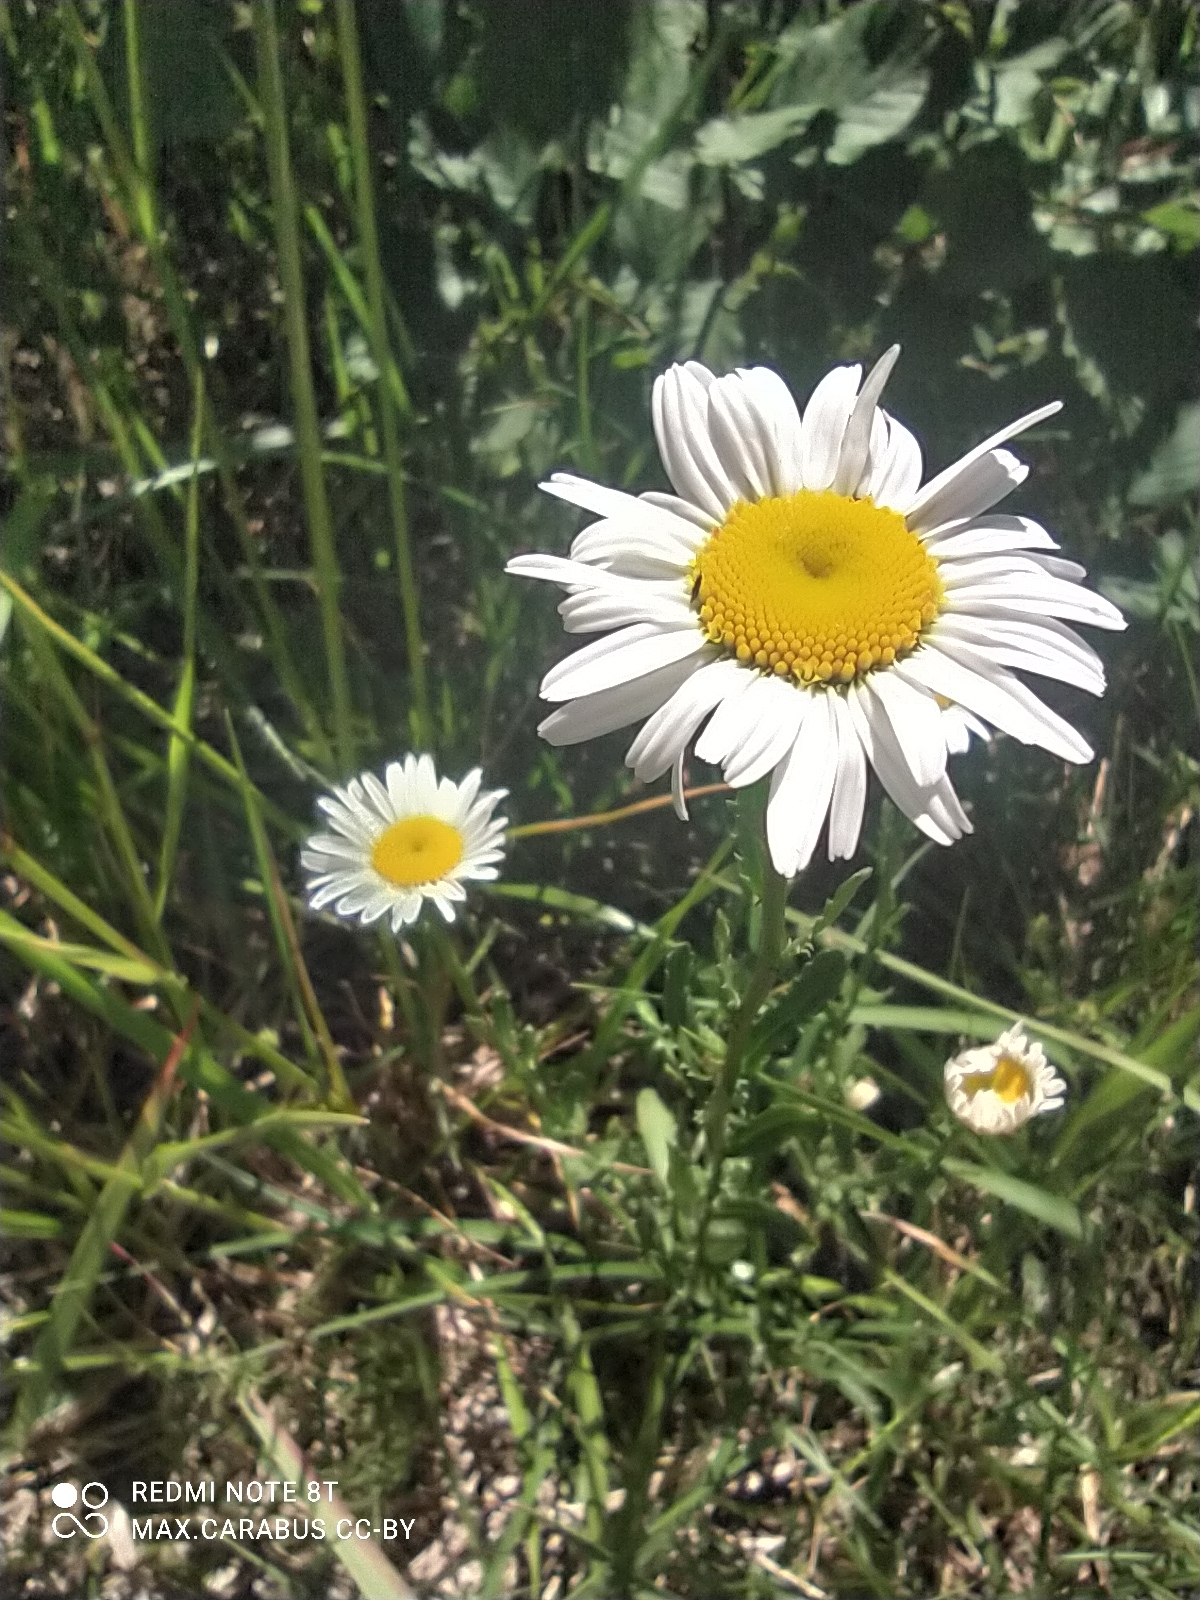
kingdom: Plantae
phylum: Tracheophyta
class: Magnoliopsida
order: Asterales
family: Asteraceae
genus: Leucanthemum
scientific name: Leucanthemum vulgare
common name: Oxeye daisy
